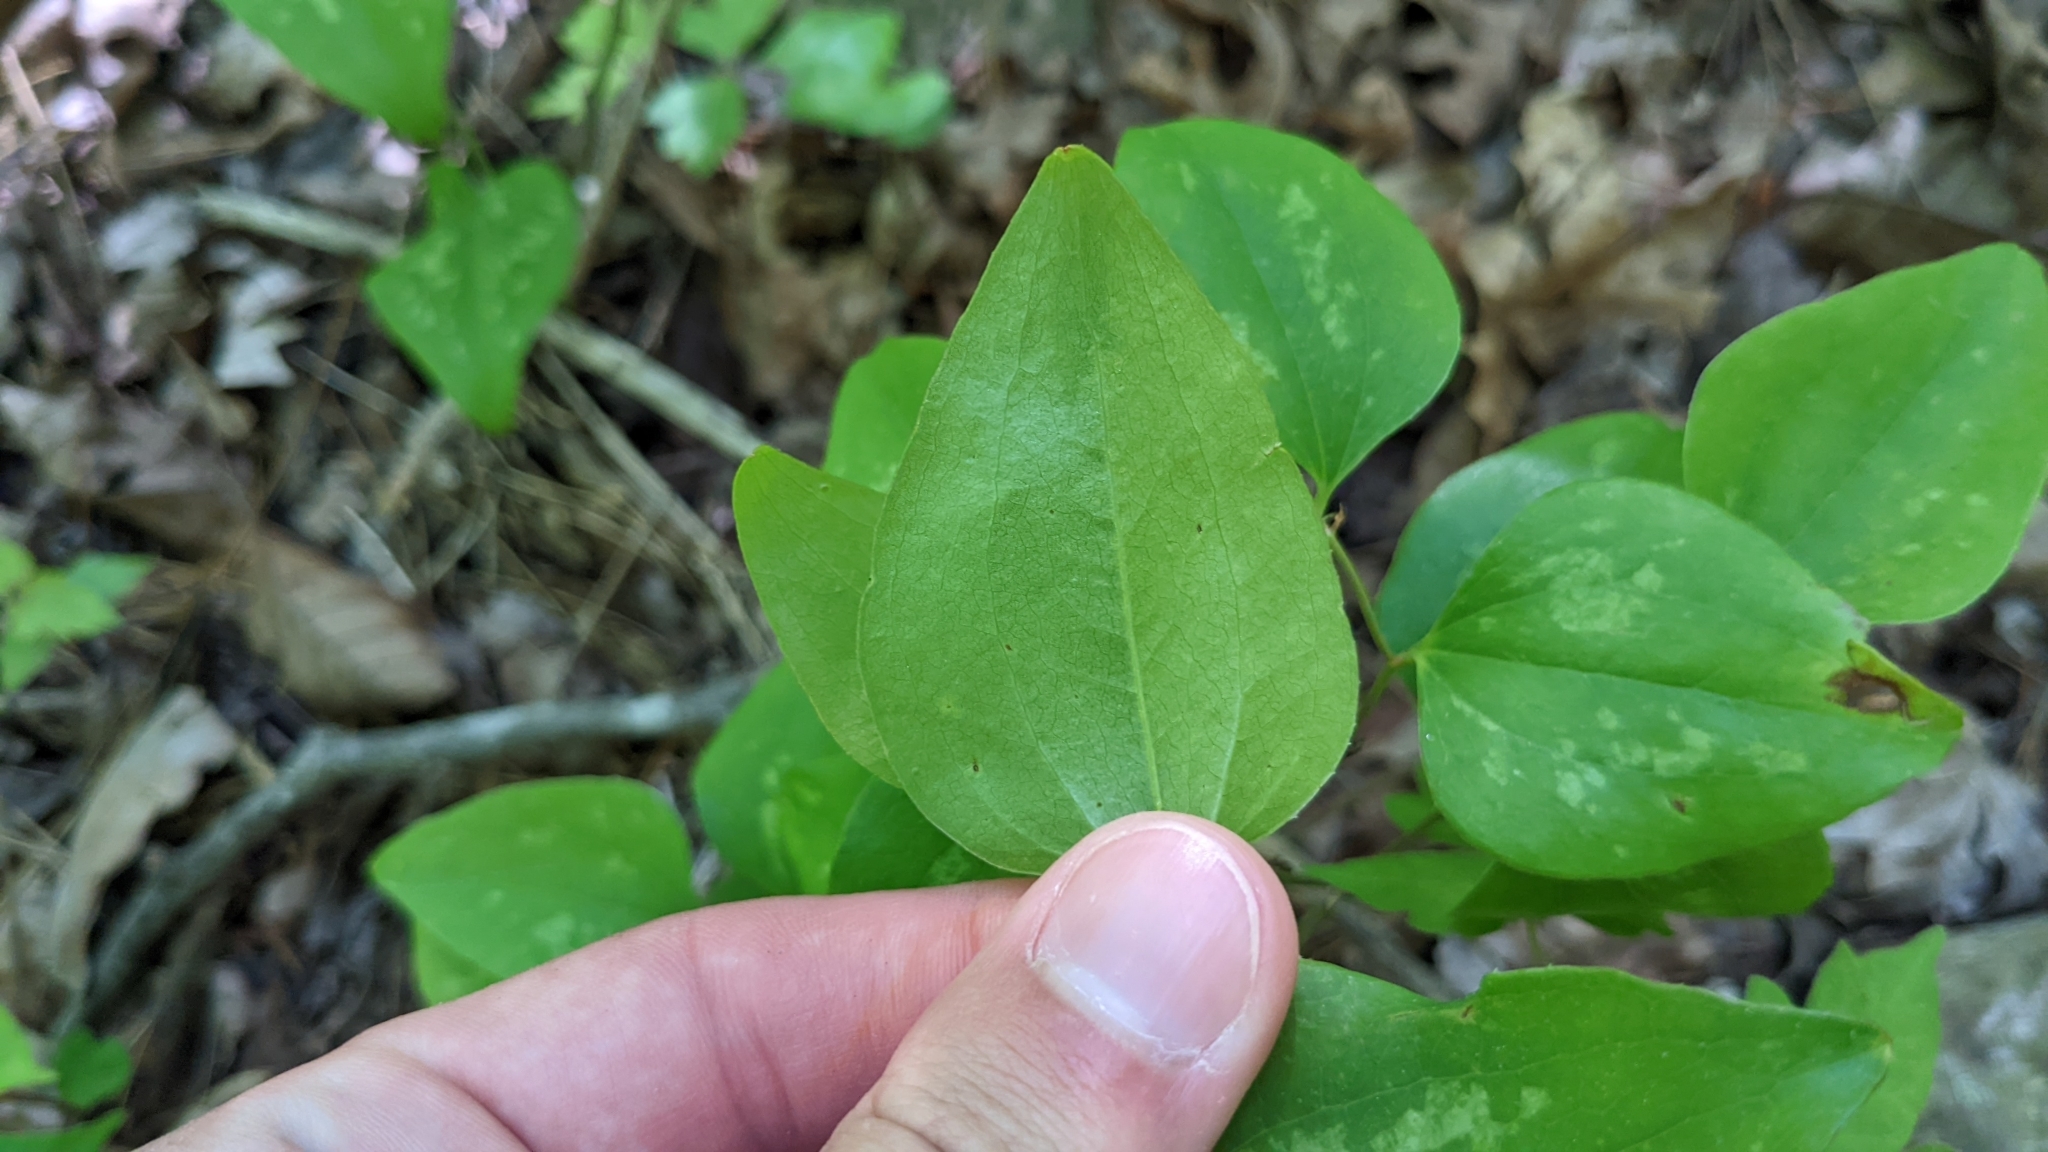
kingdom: Plantae
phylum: Tracheophyta
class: Liliopsida
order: Liliales
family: Smilacaceae
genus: Smilax
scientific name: Smilax bona-nox
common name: Catbrier
